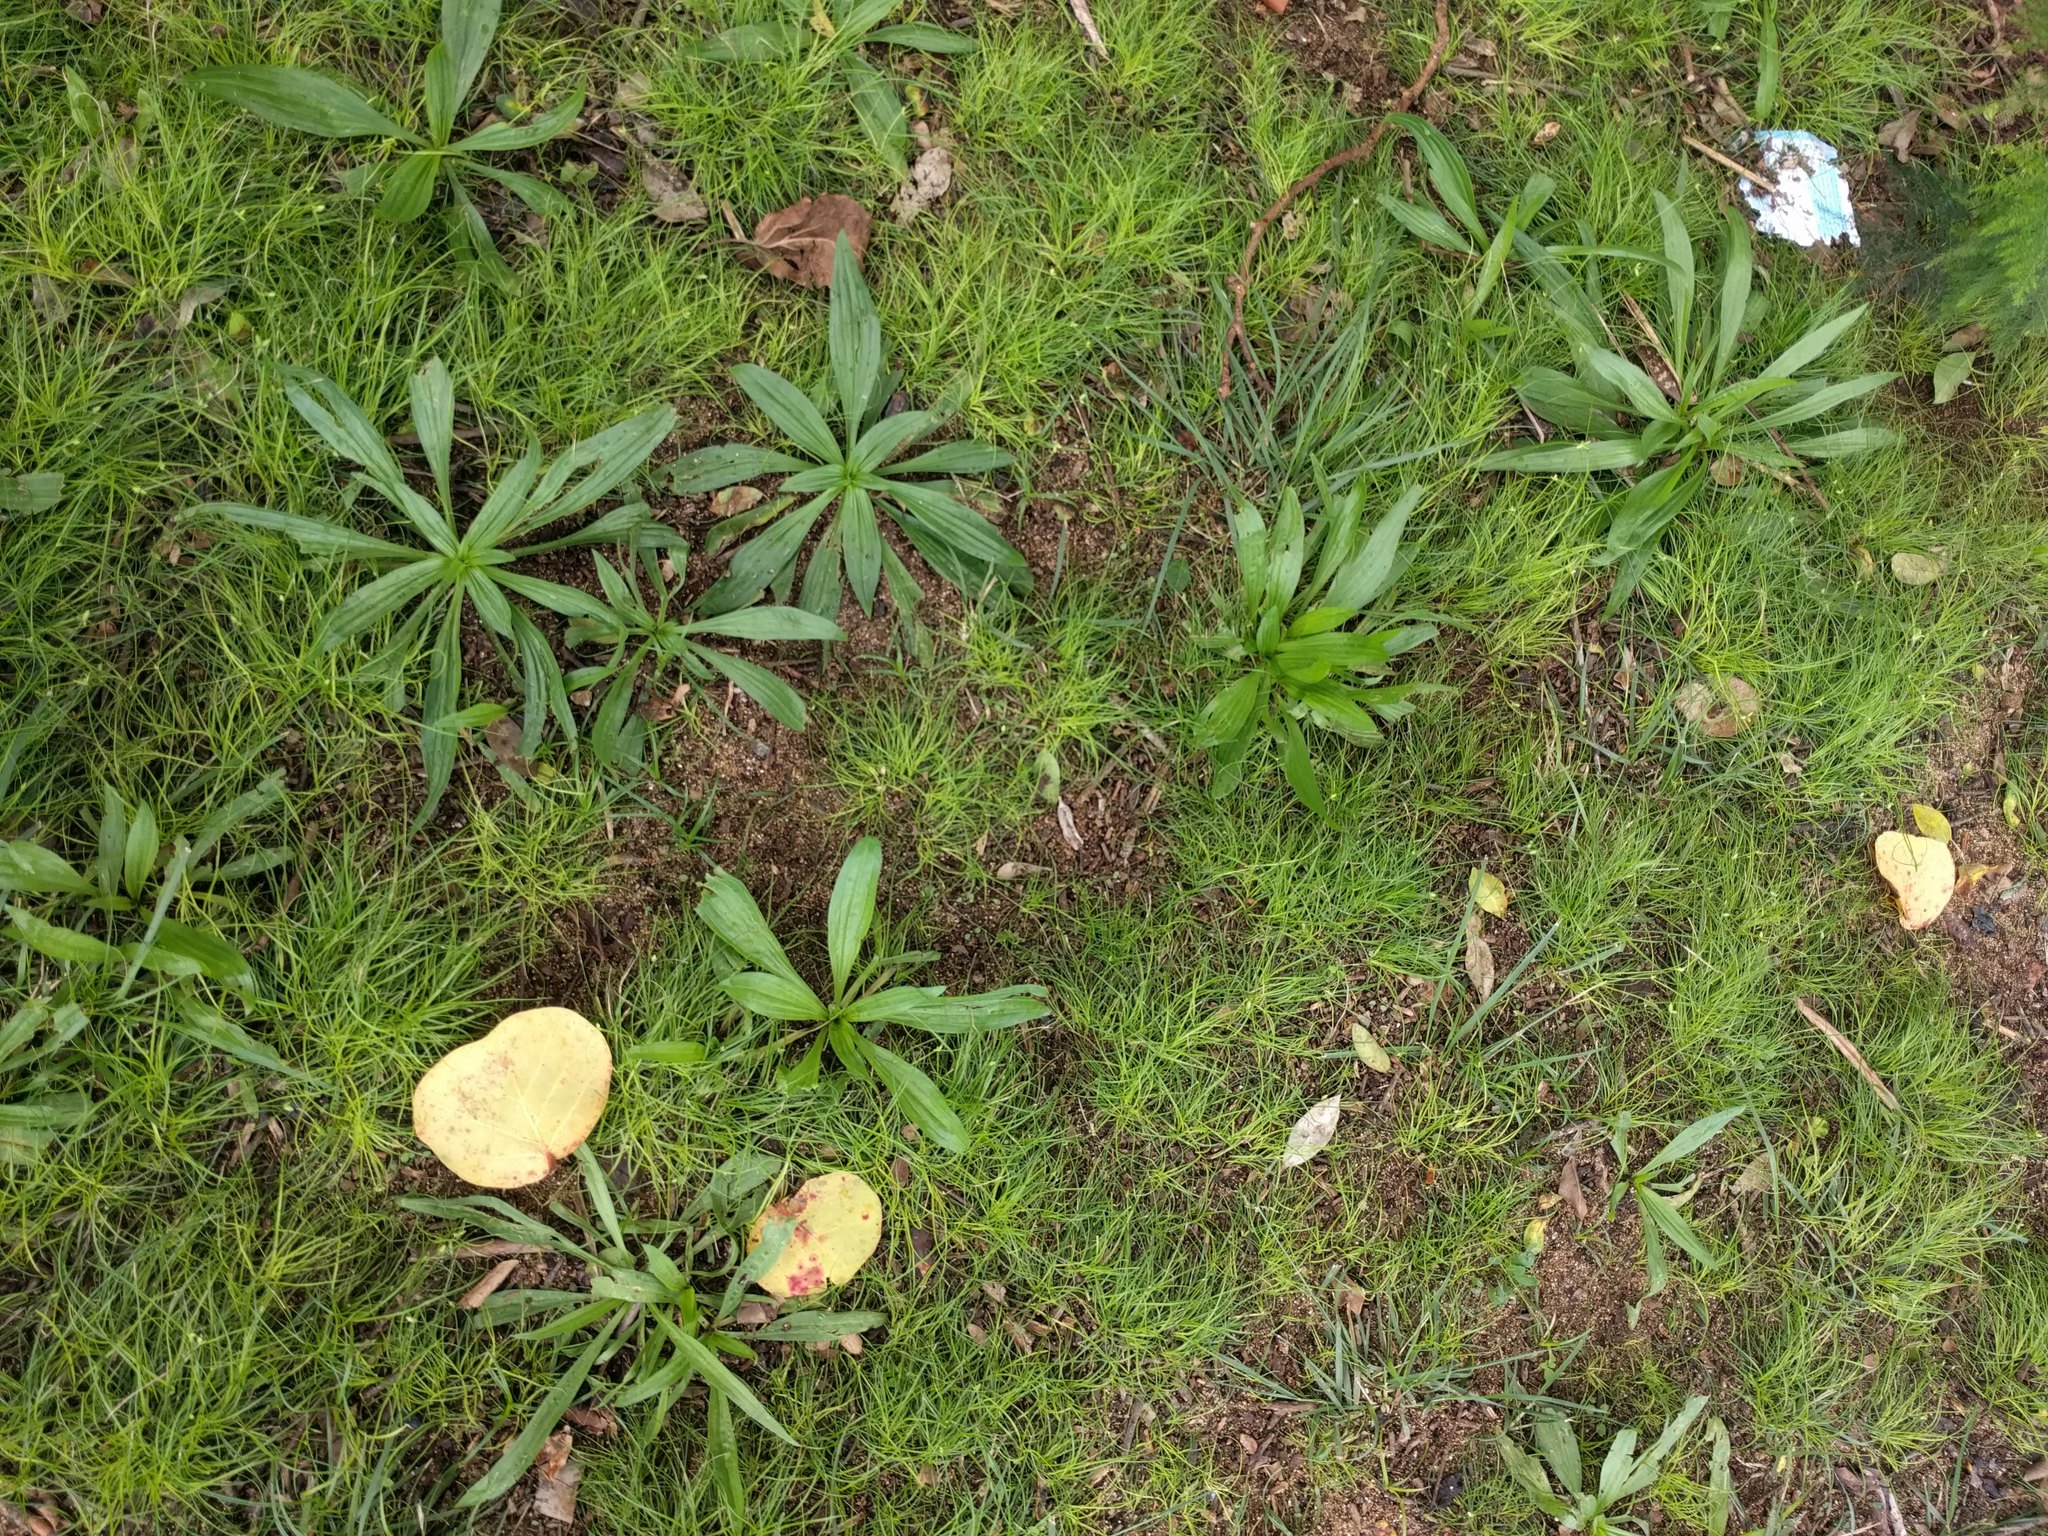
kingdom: Plantae
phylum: Tracheophyta
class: Magnoliopsida
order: Lamiales
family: Plantaginaceae
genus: Plantago
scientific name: Plantago lanceolata
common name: Ribwort plantain
